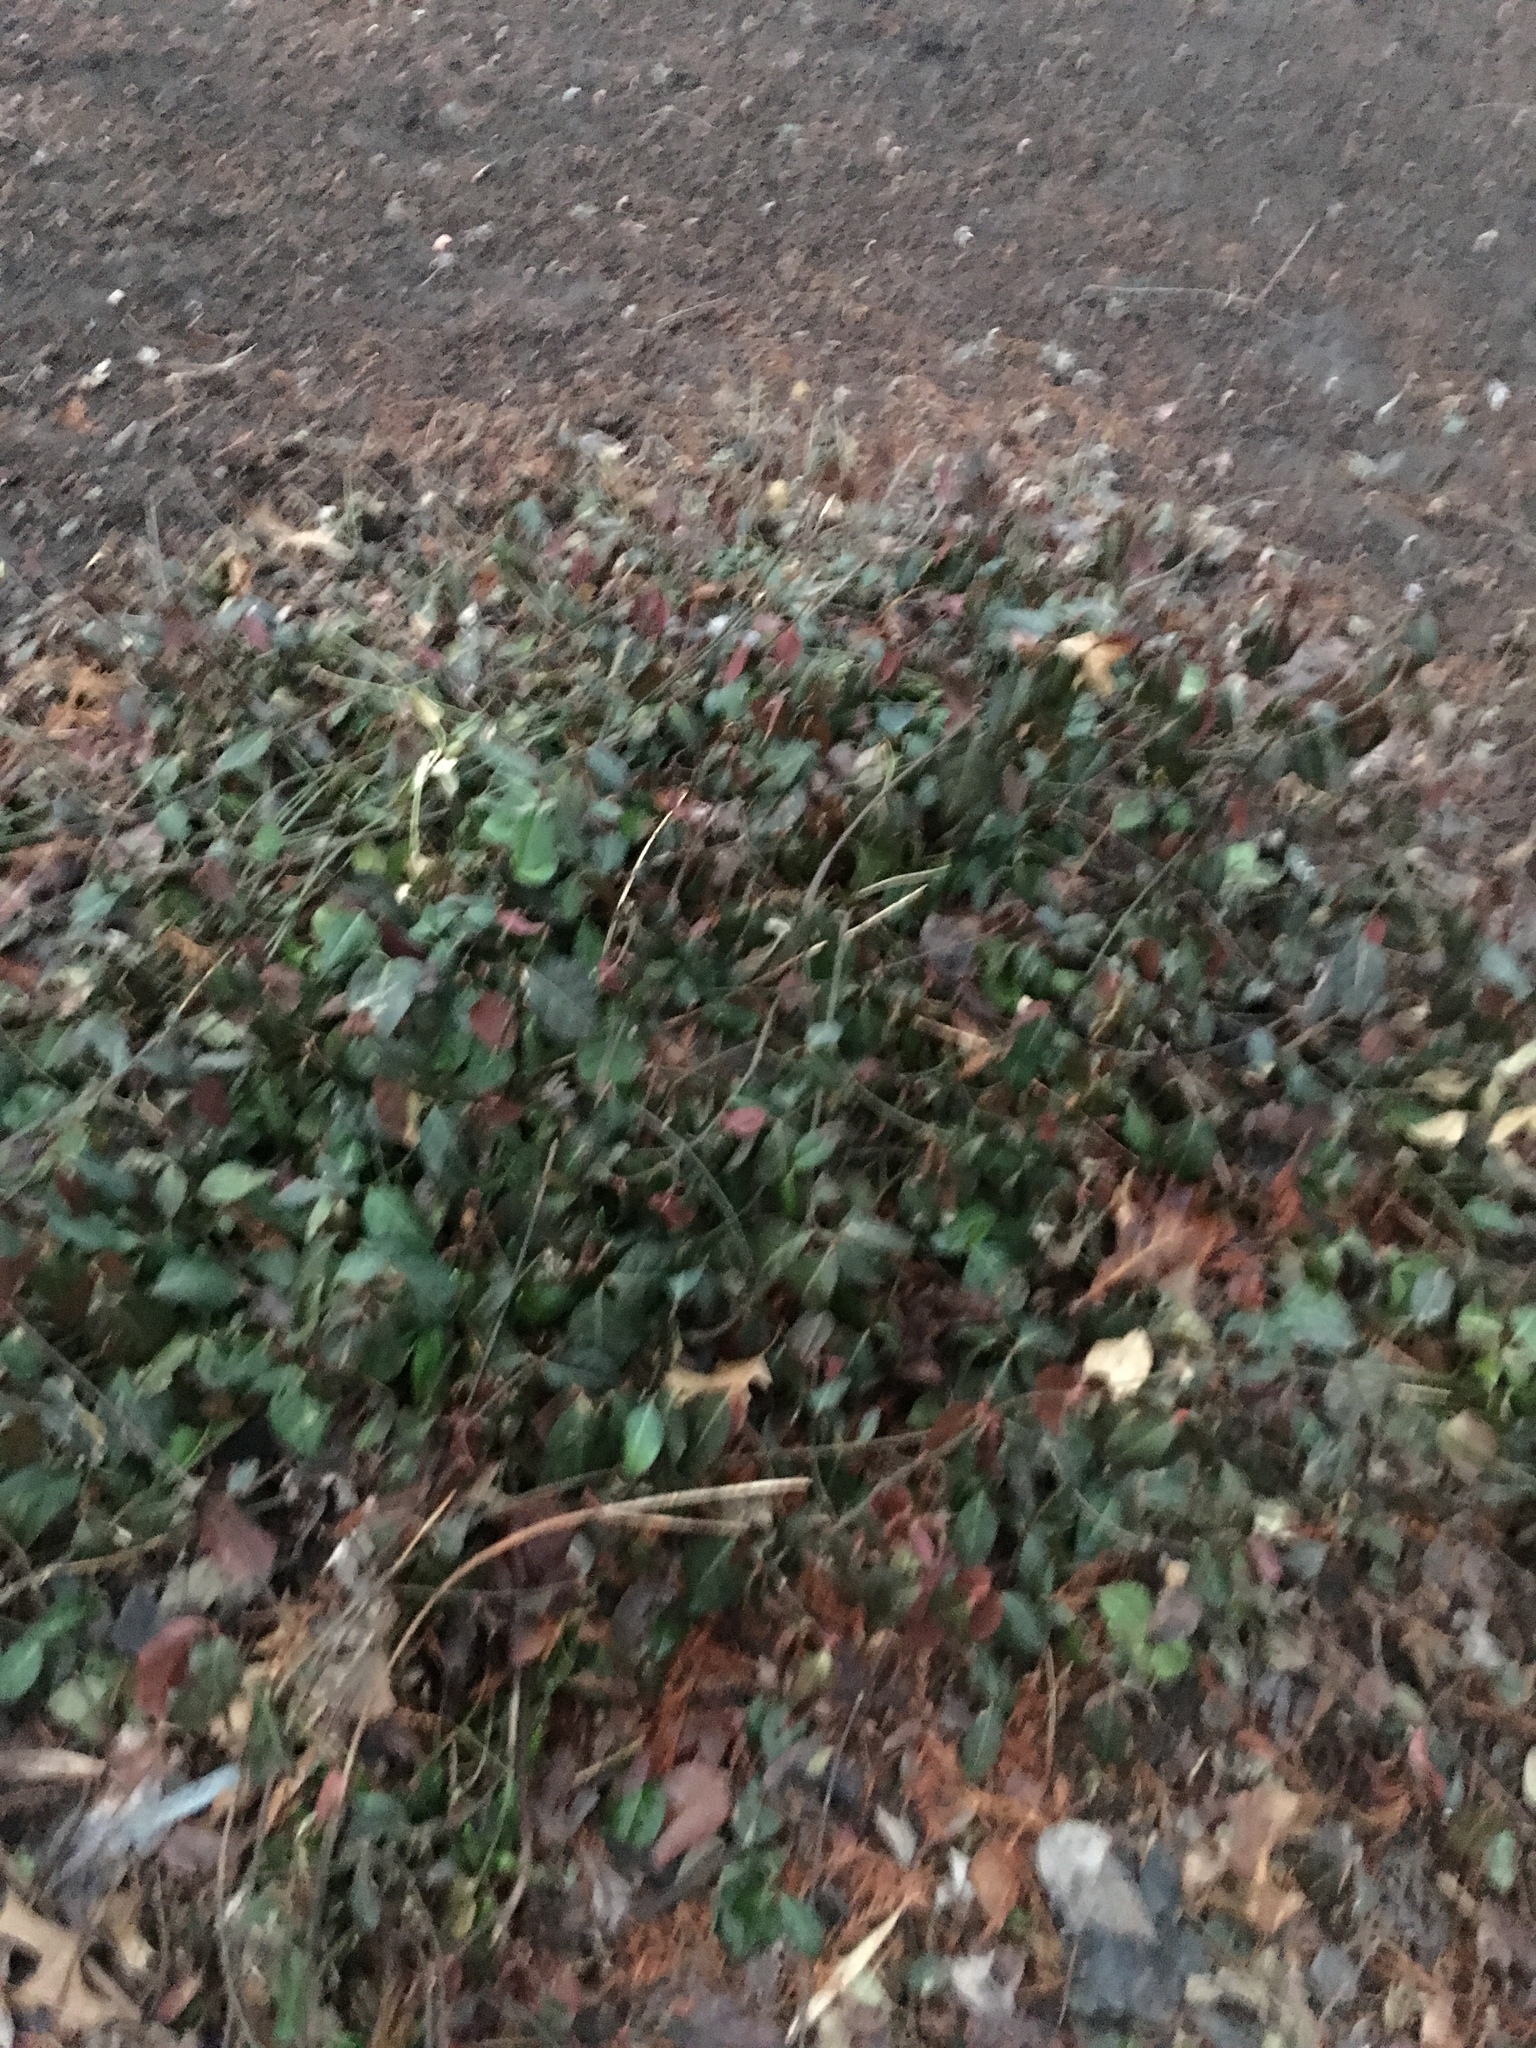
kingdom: Plantae
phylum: Tracheophyta
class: Magnoliopsida
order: Celastrales
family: Celastraceae
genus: Euonymus
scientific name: Euonymus fortunei
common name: Climbing euonymus
